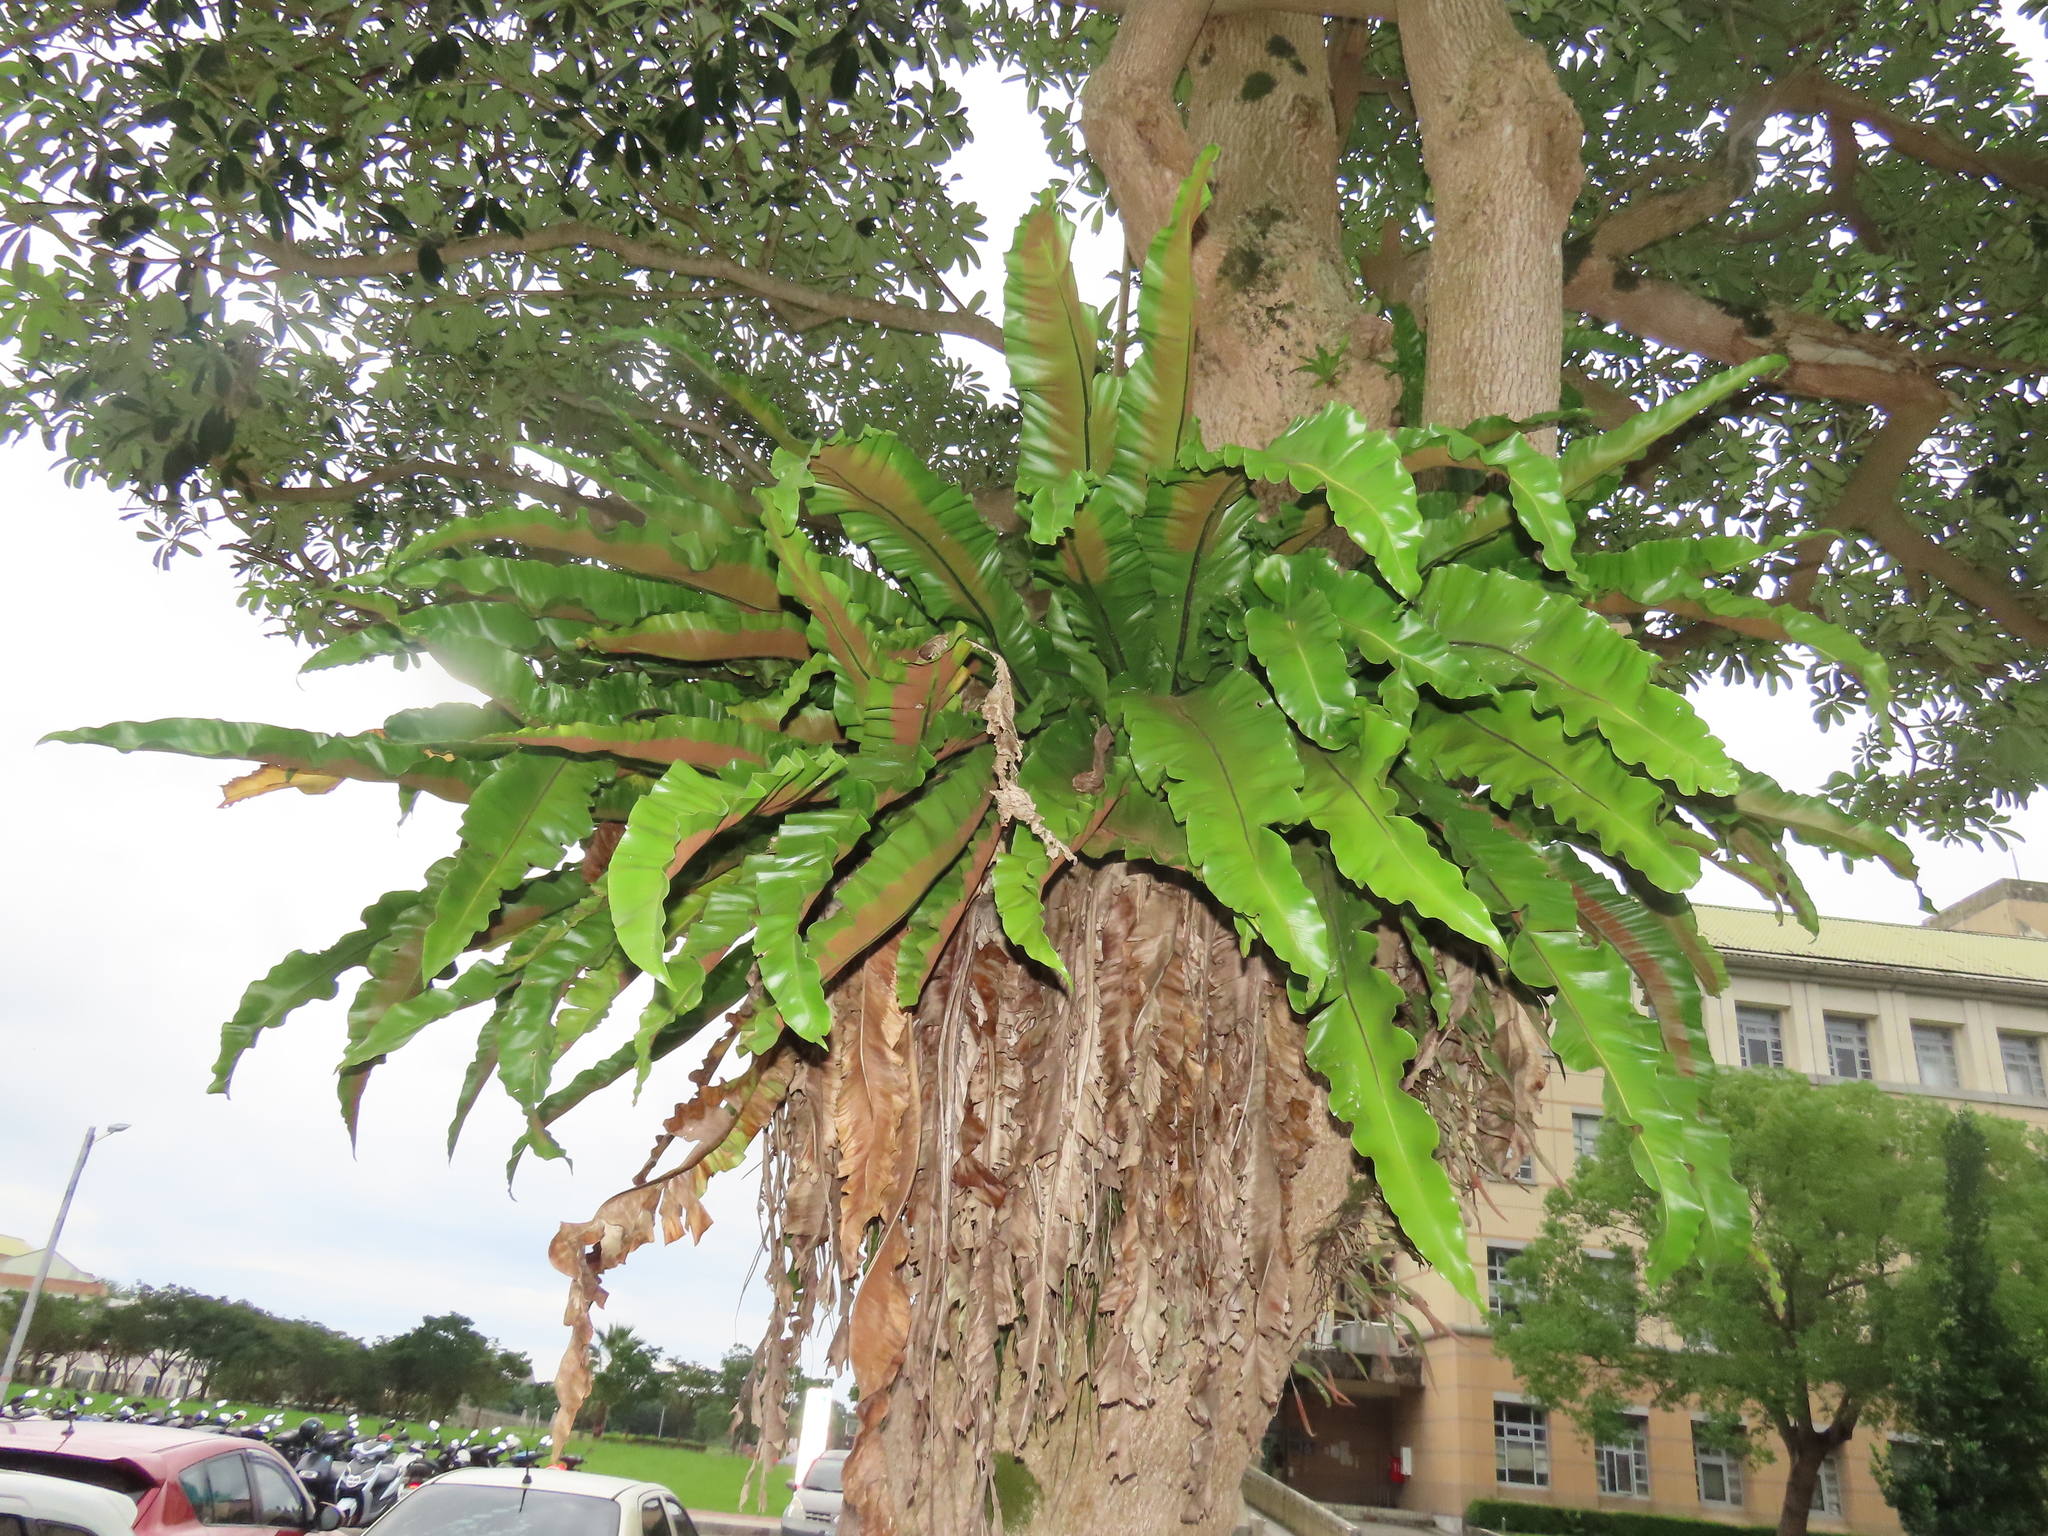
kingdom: Plantae
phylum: Tracheophyta
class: Polypodiopsida
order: Polypodiales
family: Aspleniaceae
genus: Asplenium
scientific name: Asplenium setoi
